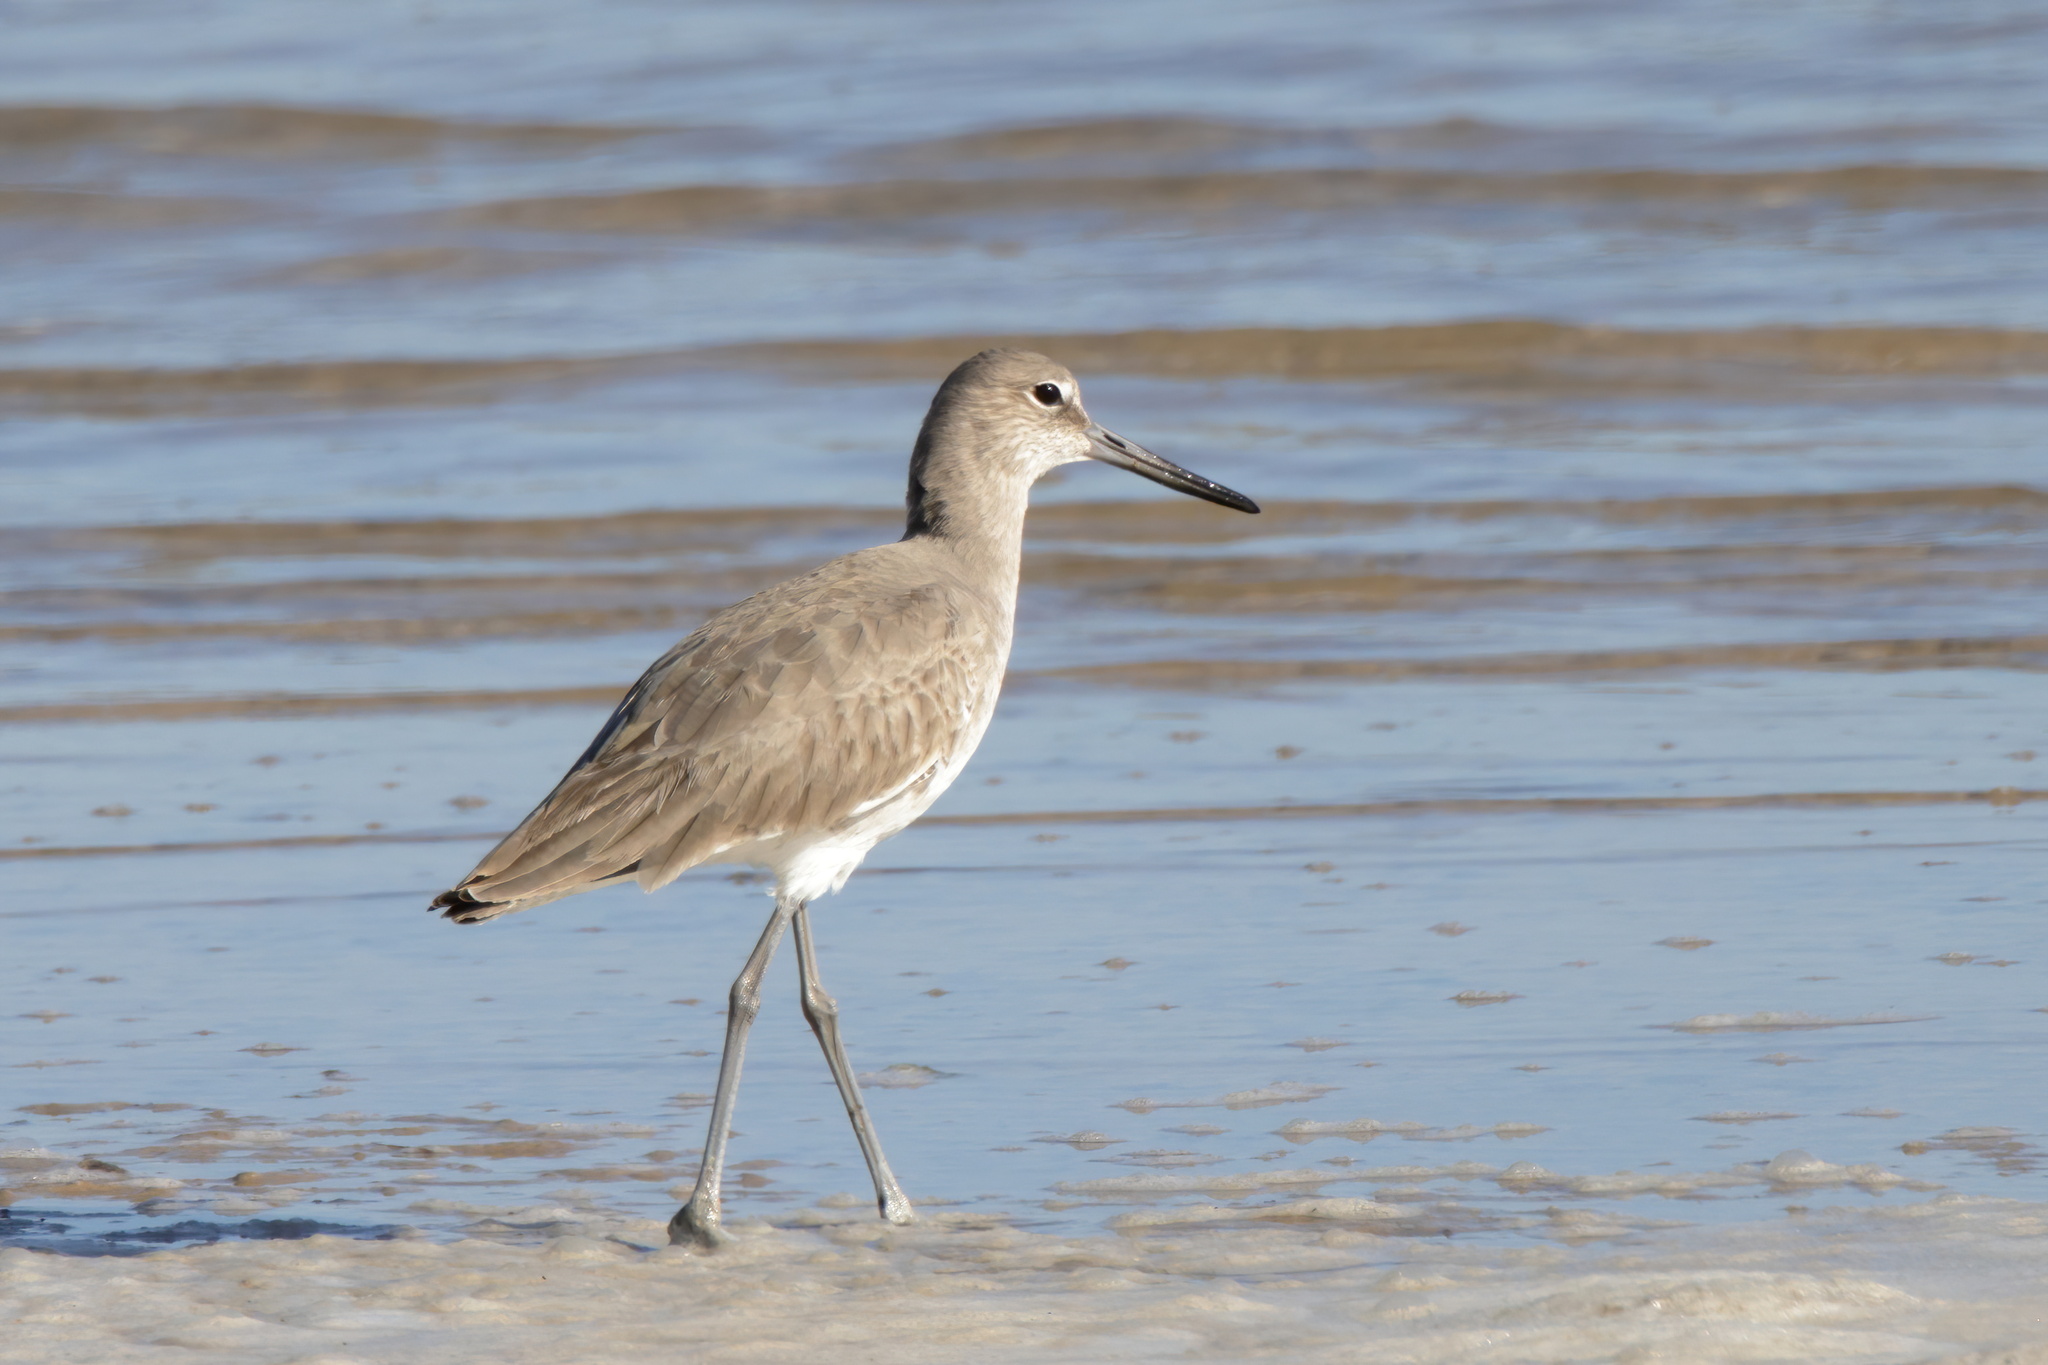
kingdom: Animalia
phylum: Chordata
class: Aves
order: Charadriiformes
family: Scolopacidae
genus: Tringa
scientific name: Tringa semipalmata
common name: Willet
